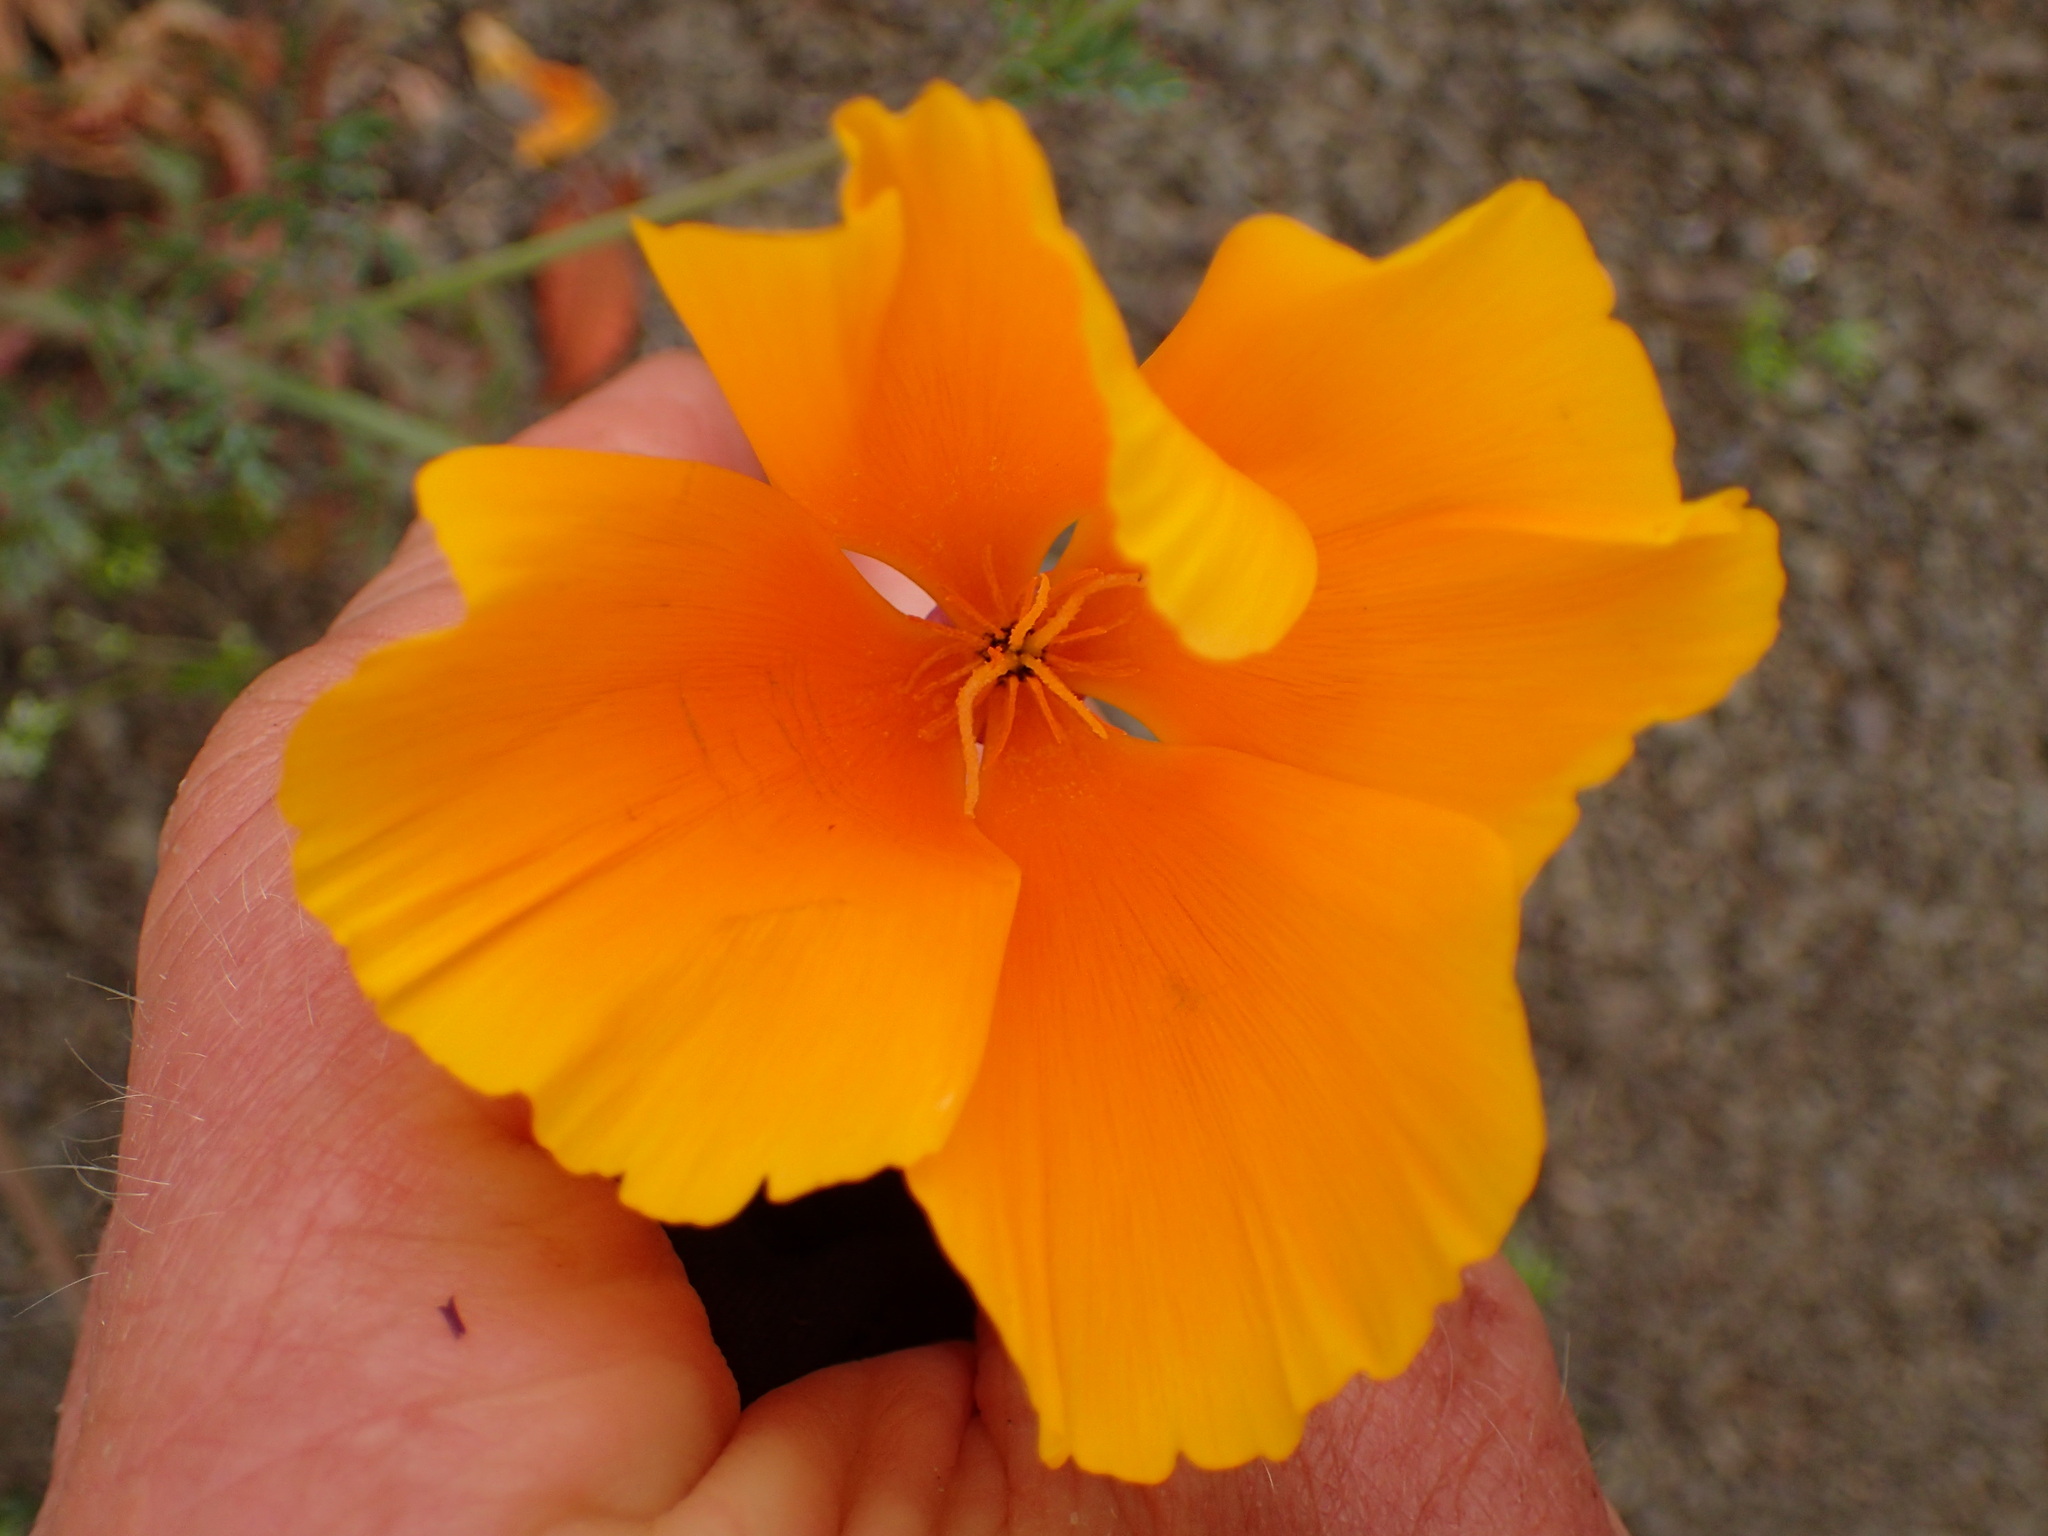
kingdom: Plantae
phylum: Tracheophyta
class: Magnoliopsida
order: Ranunculales
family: Papaveraceae
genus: Eschscholzia
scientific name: Eschscholzia californica
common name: California poppy
